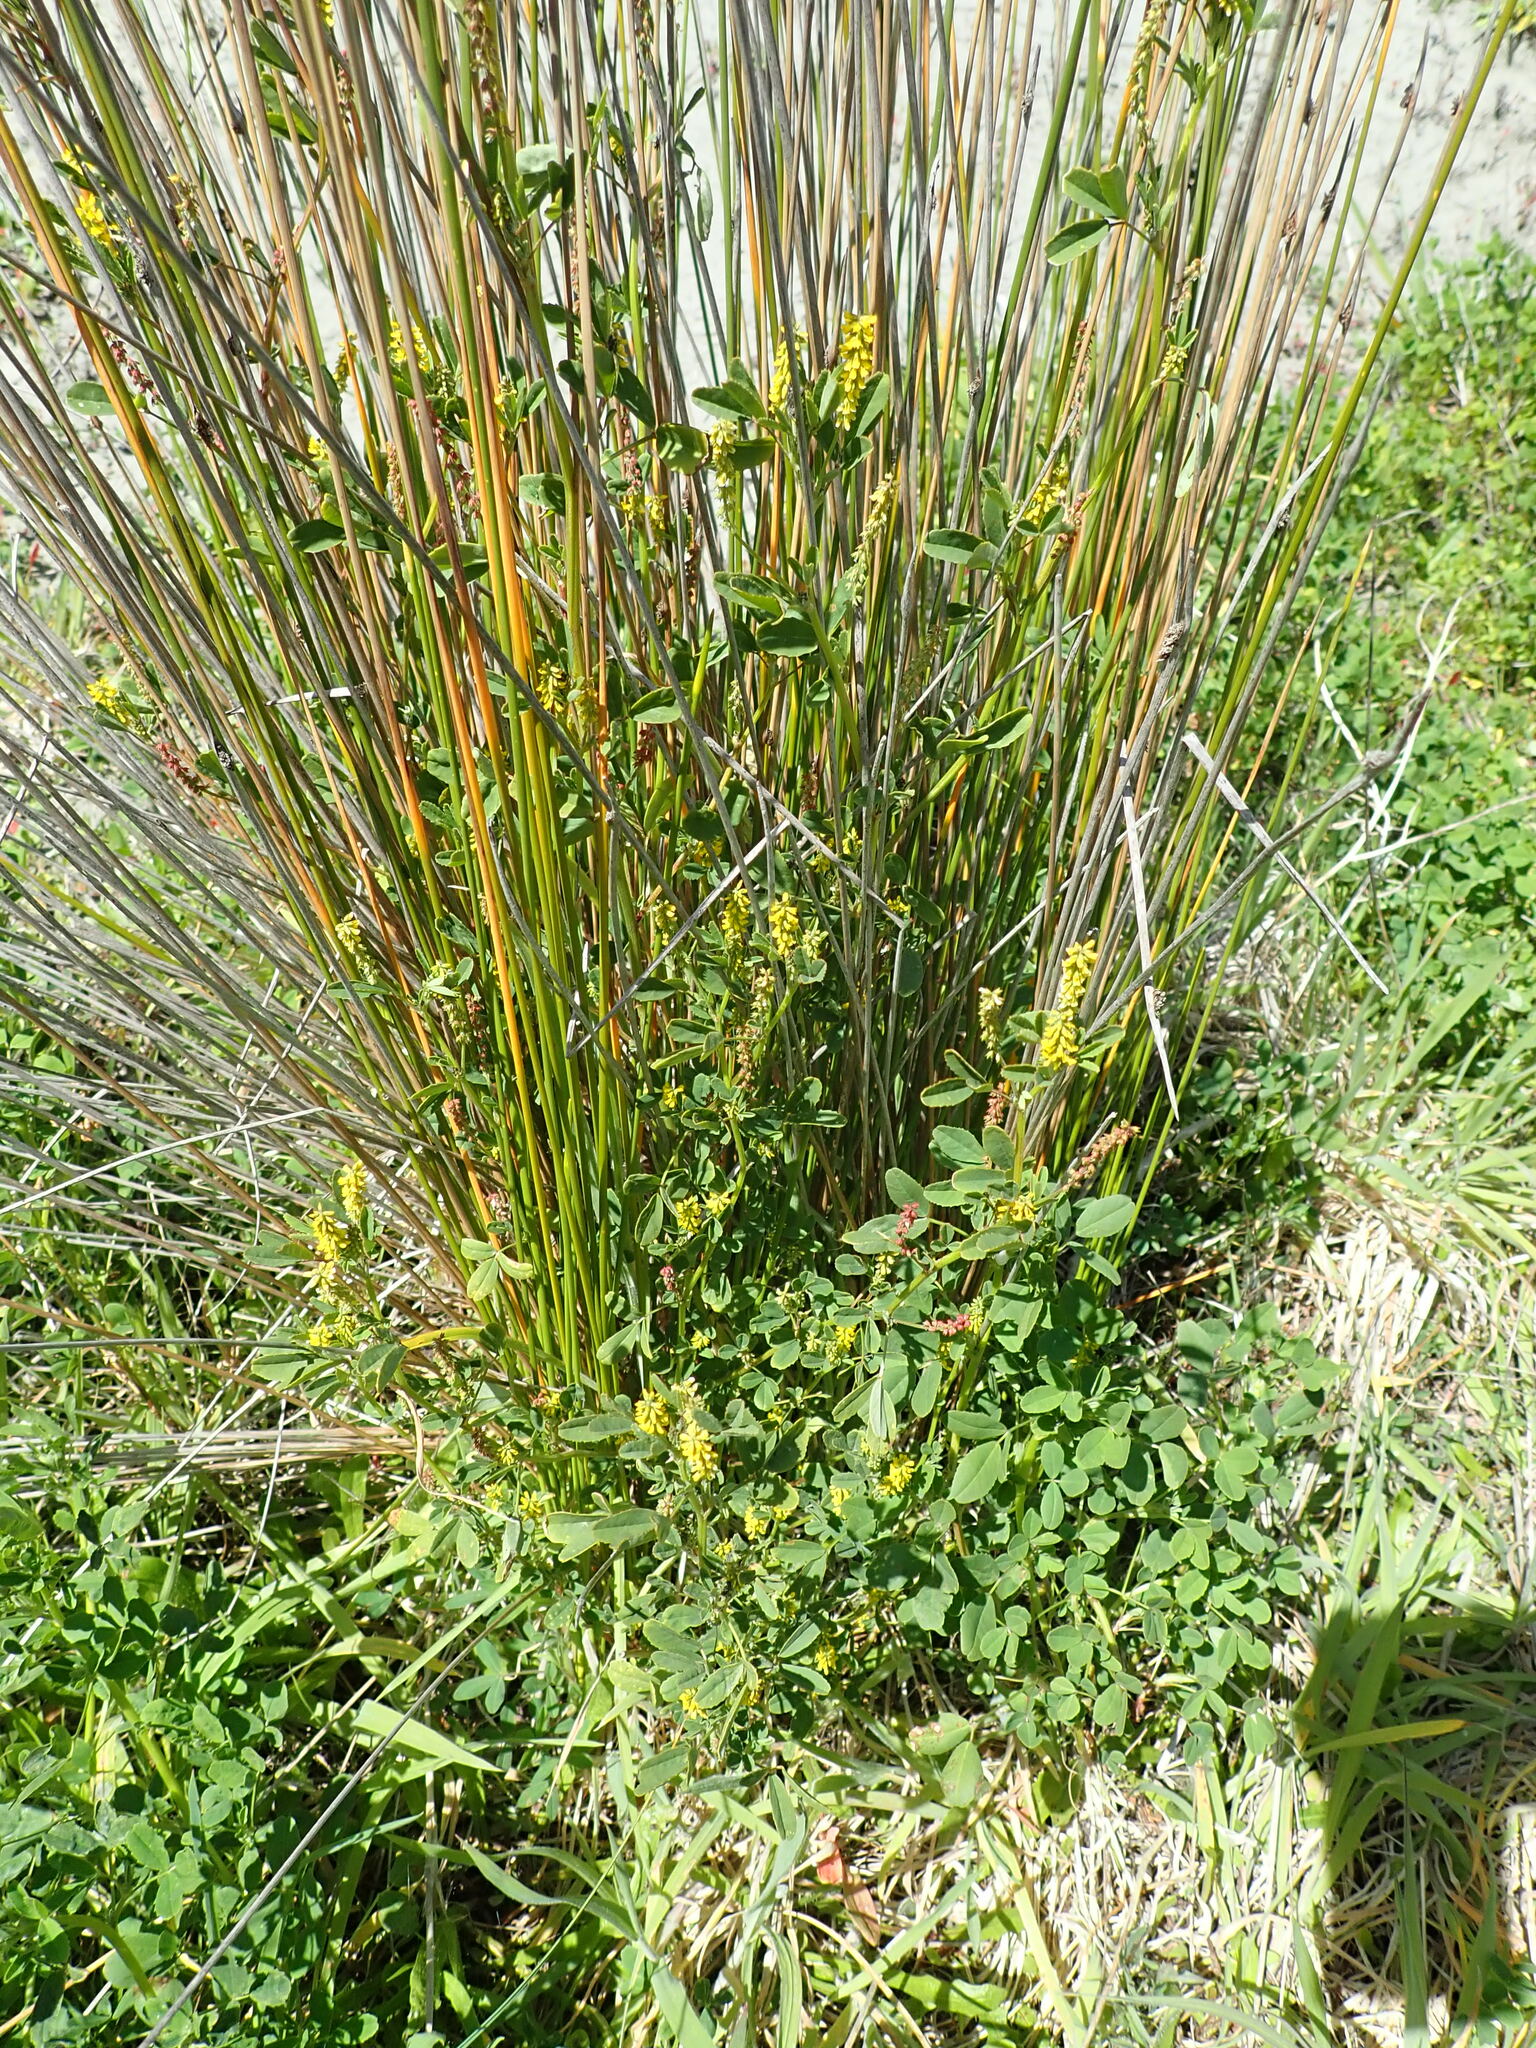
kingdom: Plantae
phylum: Tracheophyta
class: Magnoliopsida
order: Fabales
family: Fabaceae
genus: Melilotus
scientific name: Melilotus indicus
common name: Small melilot
